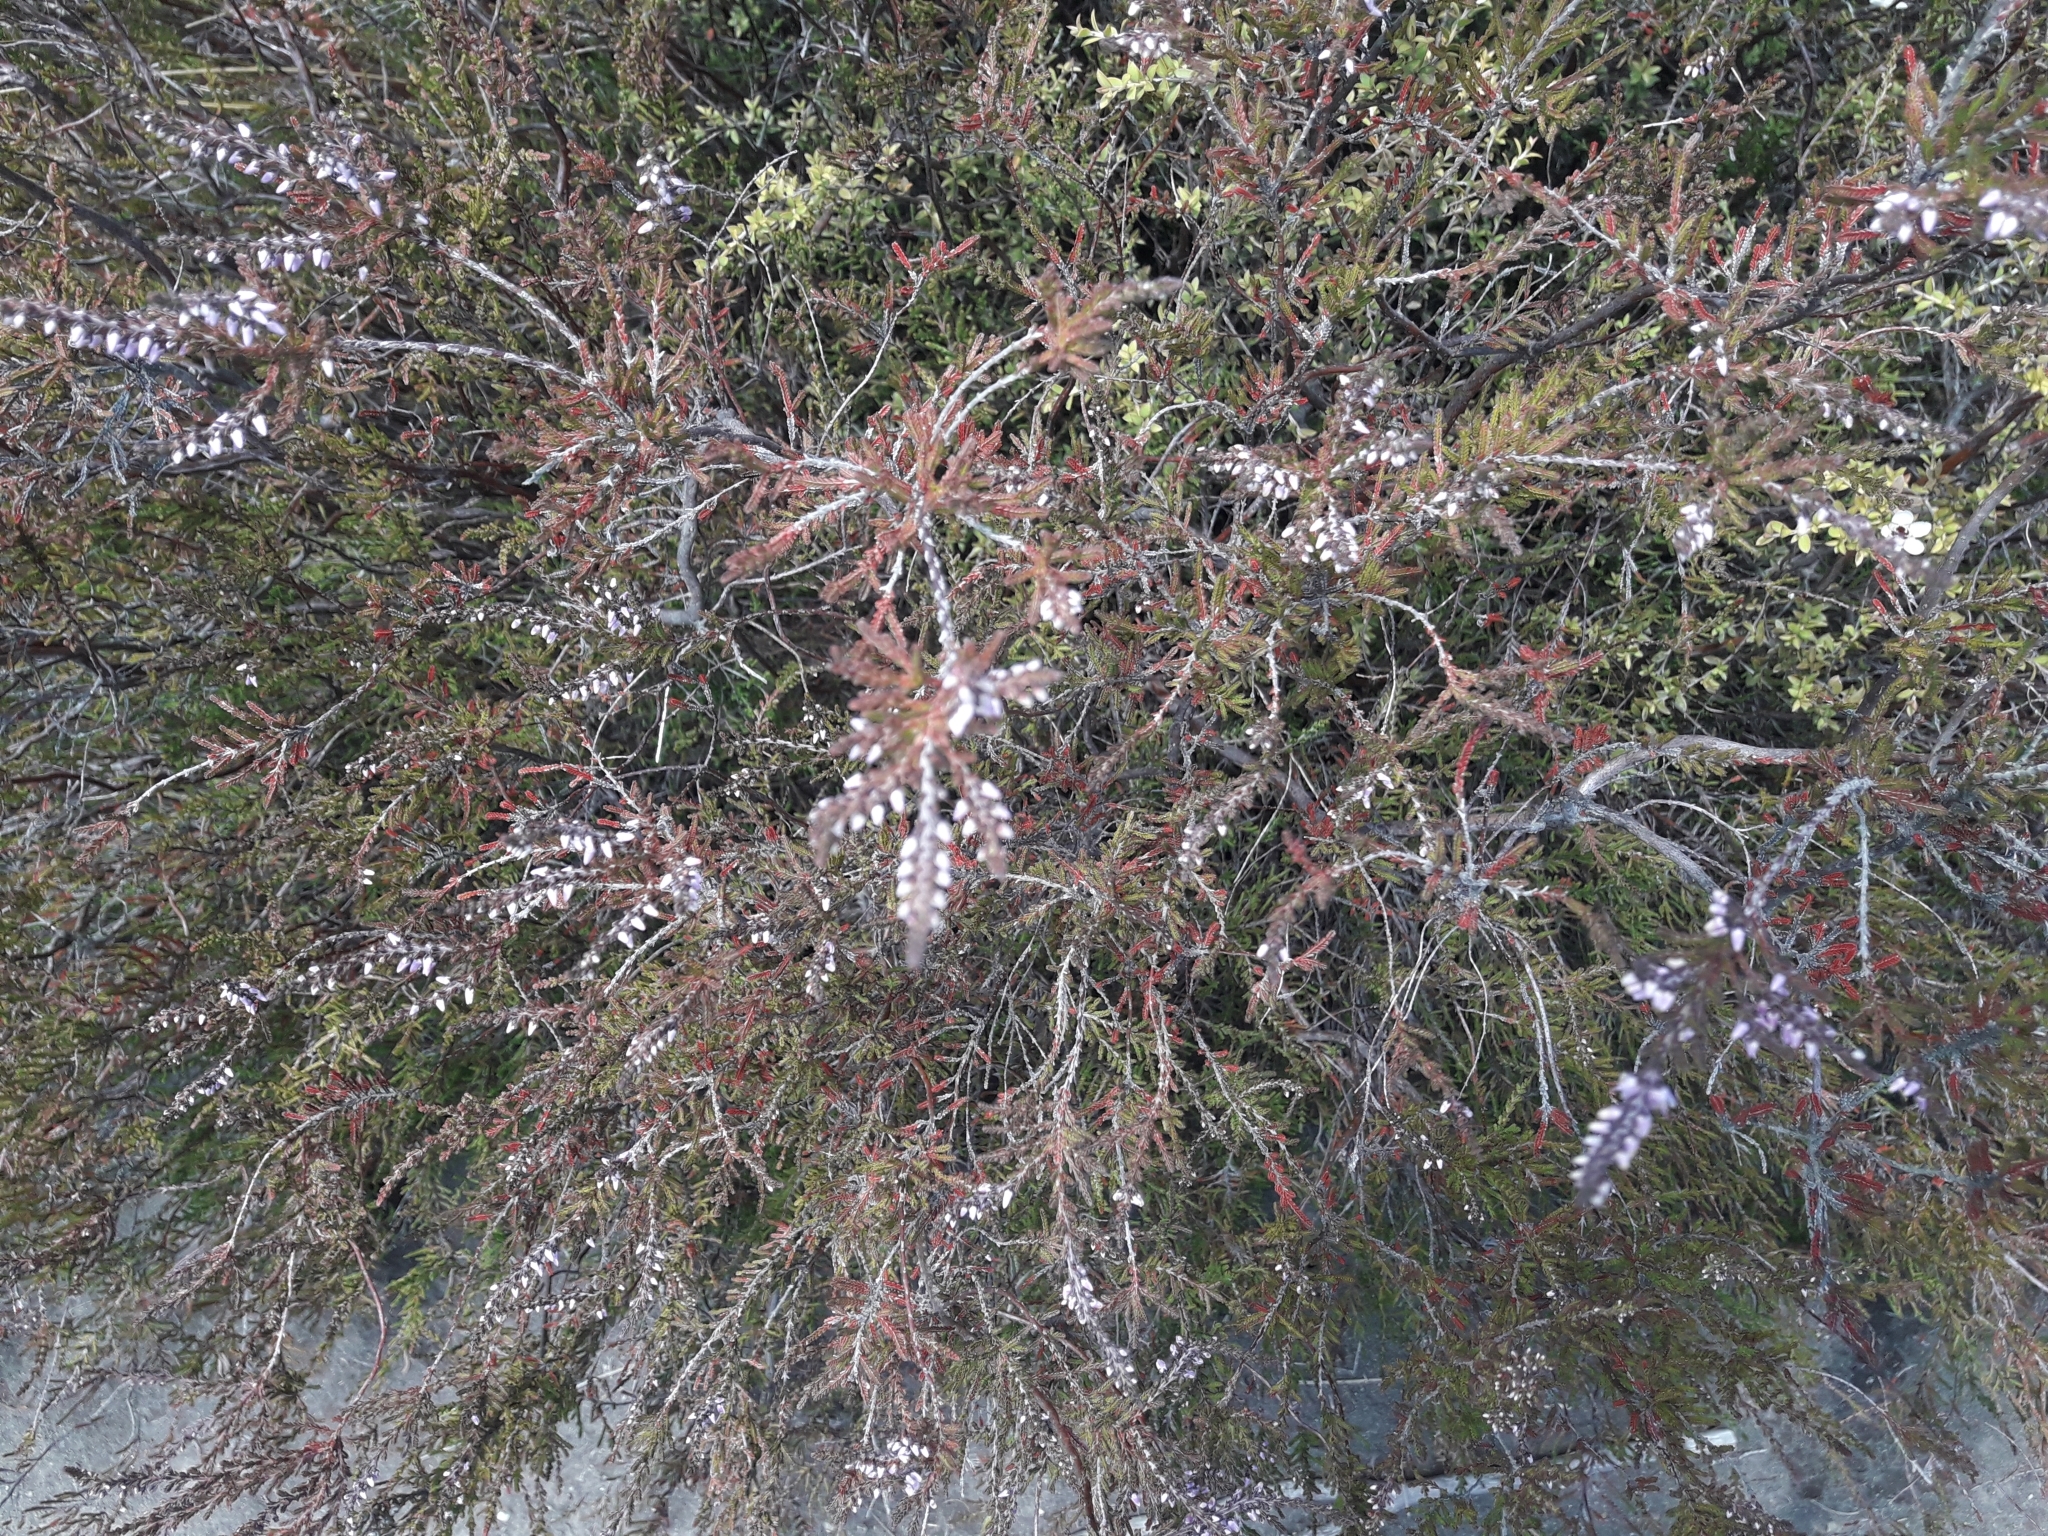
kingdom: Plantae
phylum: Tracheophyta
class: Magnoliopsida
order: Ericales
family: Ericaceae
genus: Calluna
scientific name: Calluna vulgaris
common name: Heather
